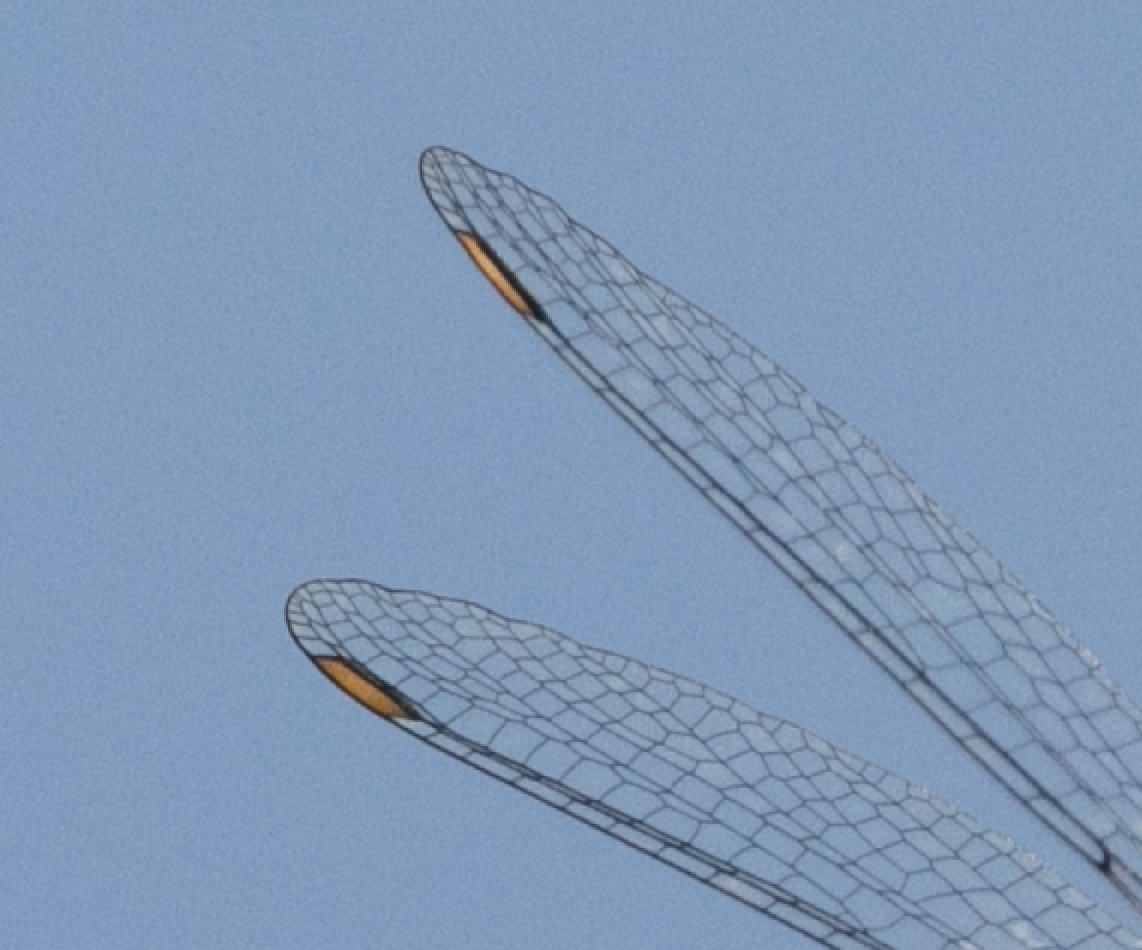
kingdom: Animalia
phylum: Arthropoda
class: Insecta
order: Odonata
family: Lestidae
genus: Chalcolestes
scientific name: Chalcolestes viridis
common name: Green emerald damselfly
